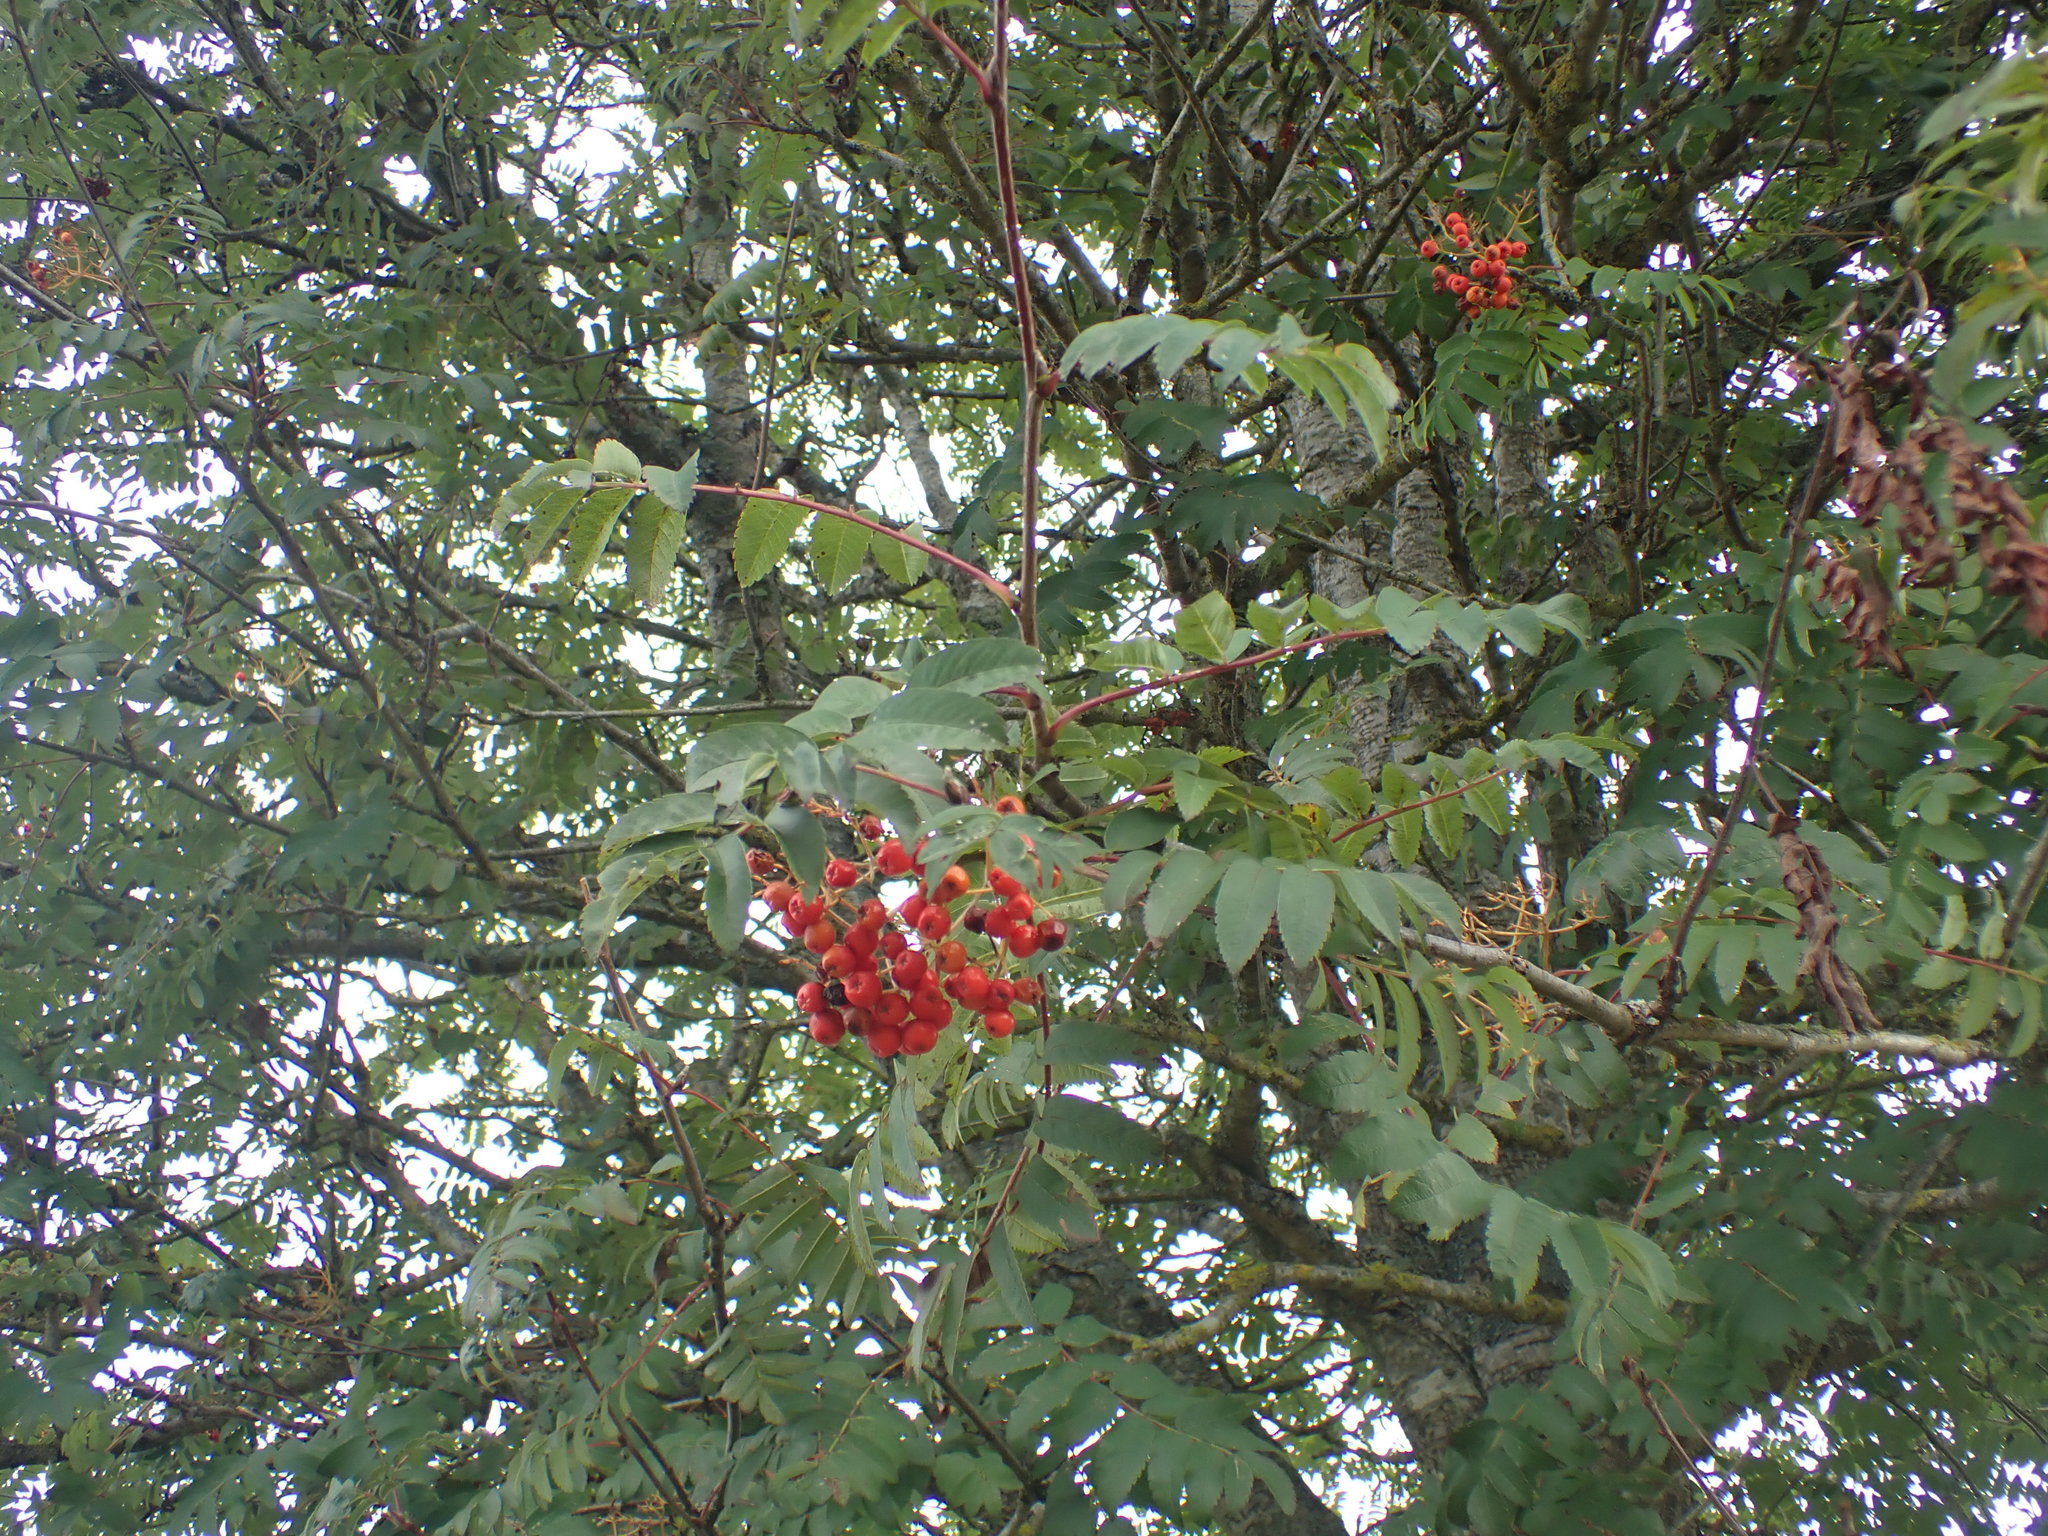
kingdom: Plantae
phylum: Tracheophyta
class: Magnoliopsida
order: Rosales
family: Rosaceae
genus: Sorbus
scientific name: Sorbus aucuparia
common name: Rowan
